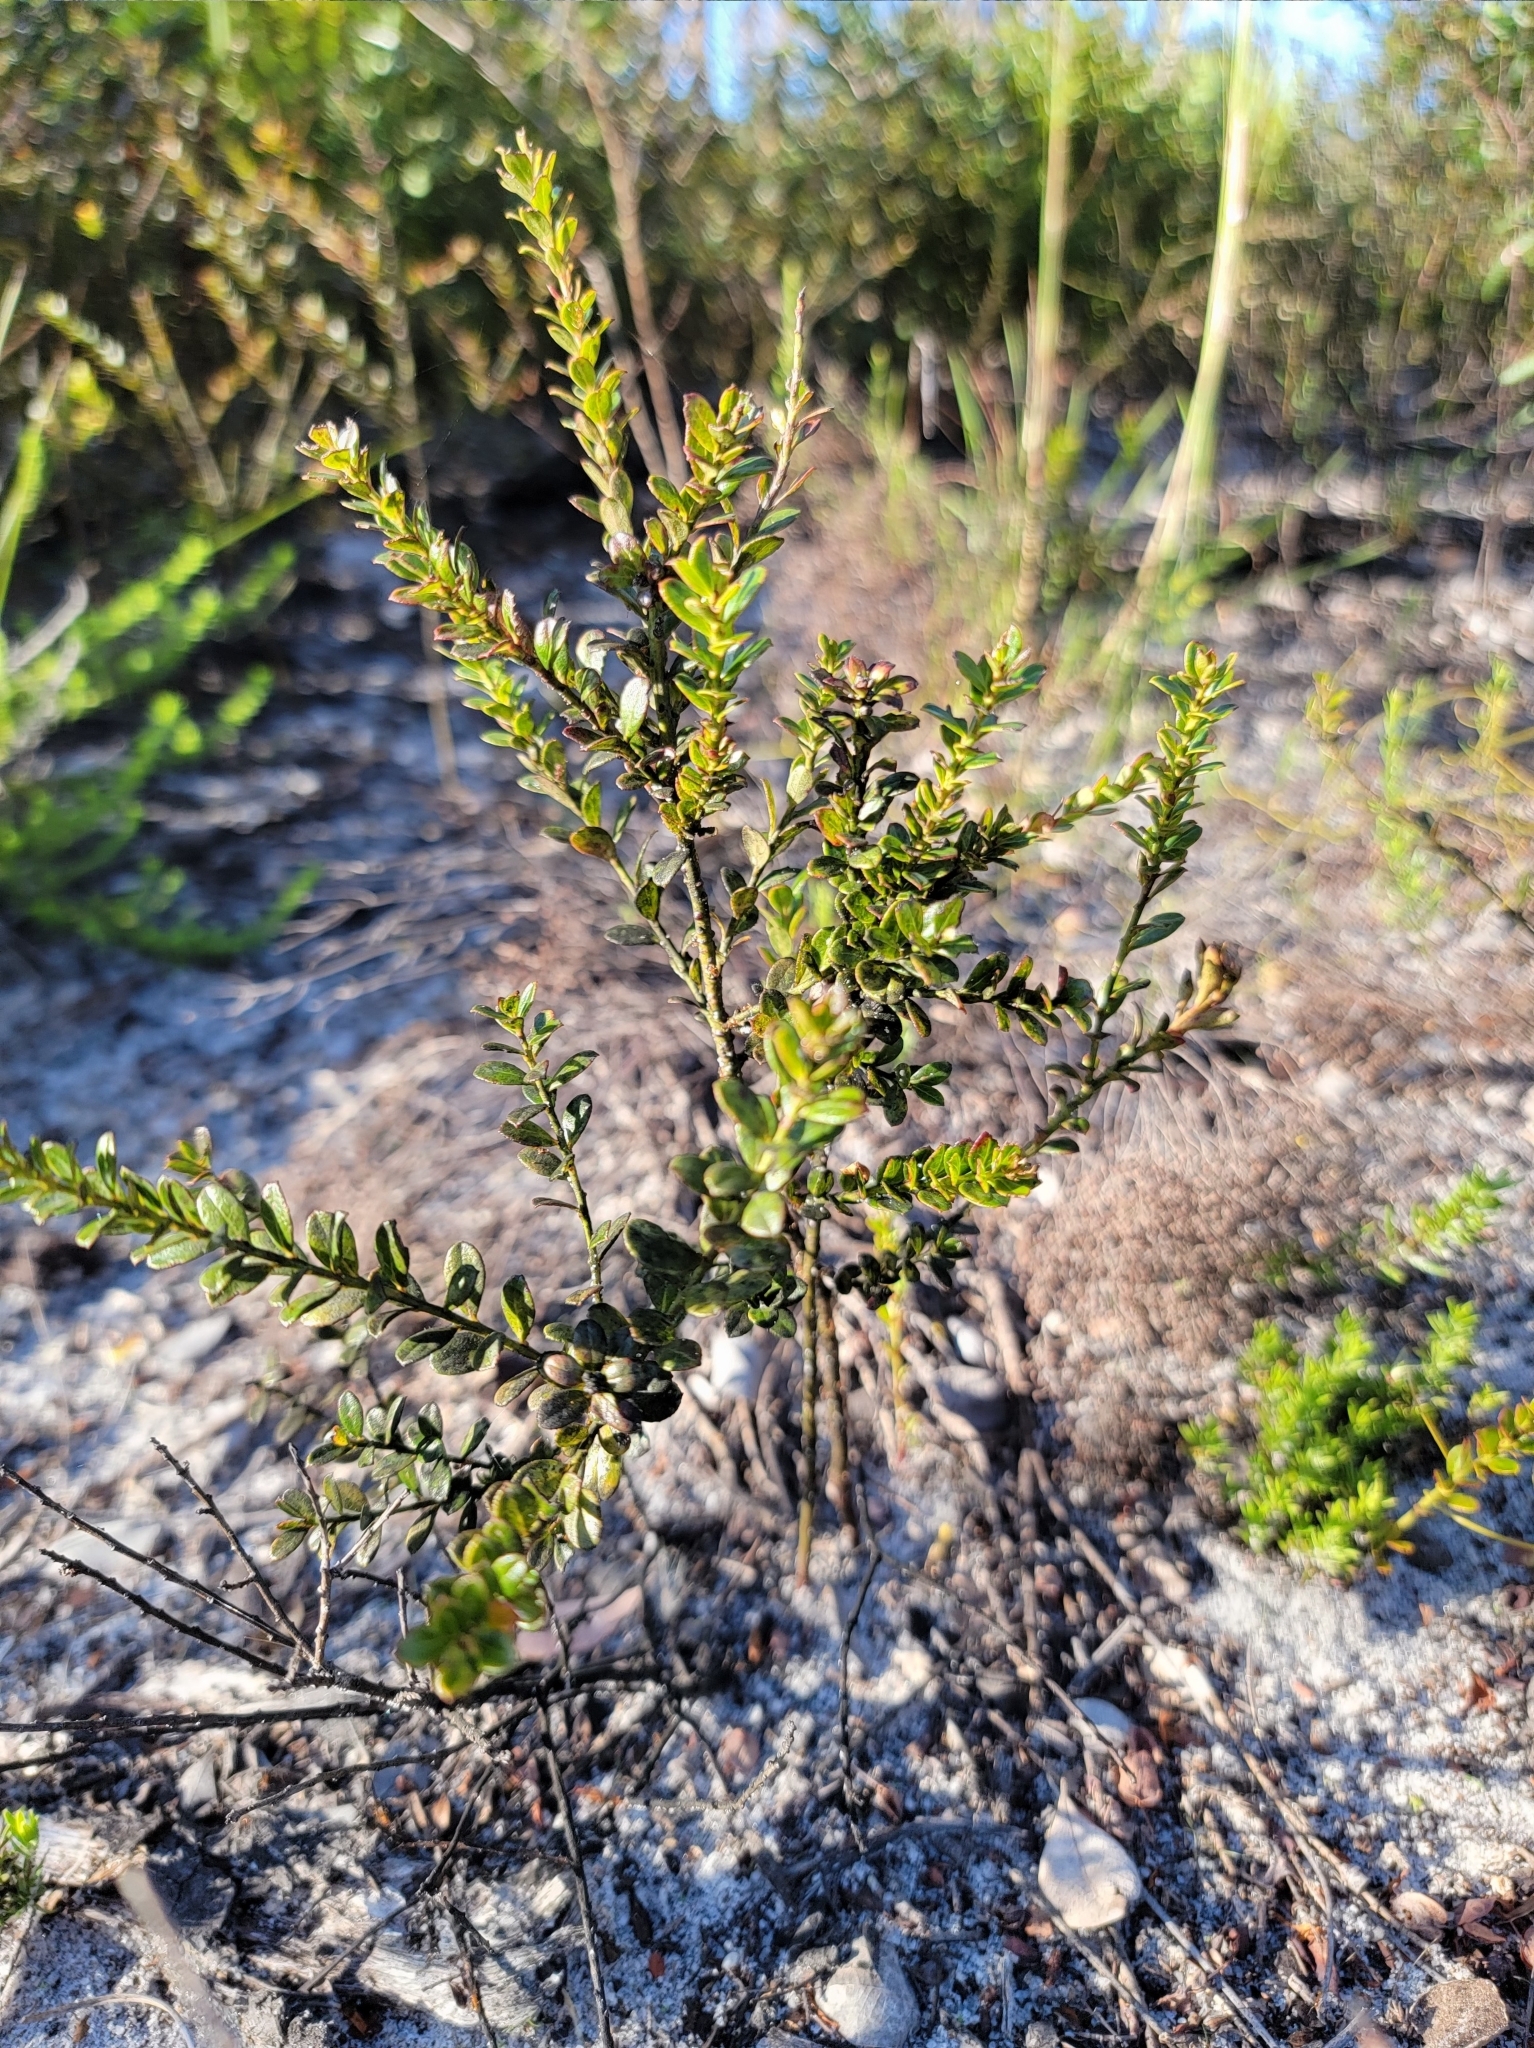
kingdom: Plantae
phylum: Tracheophyta
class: Magnoliopsida
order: Ericales
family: Ericaceae
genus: Vaccinium
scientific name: Vaccinium myrsinites
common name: Evergreen blueberry
